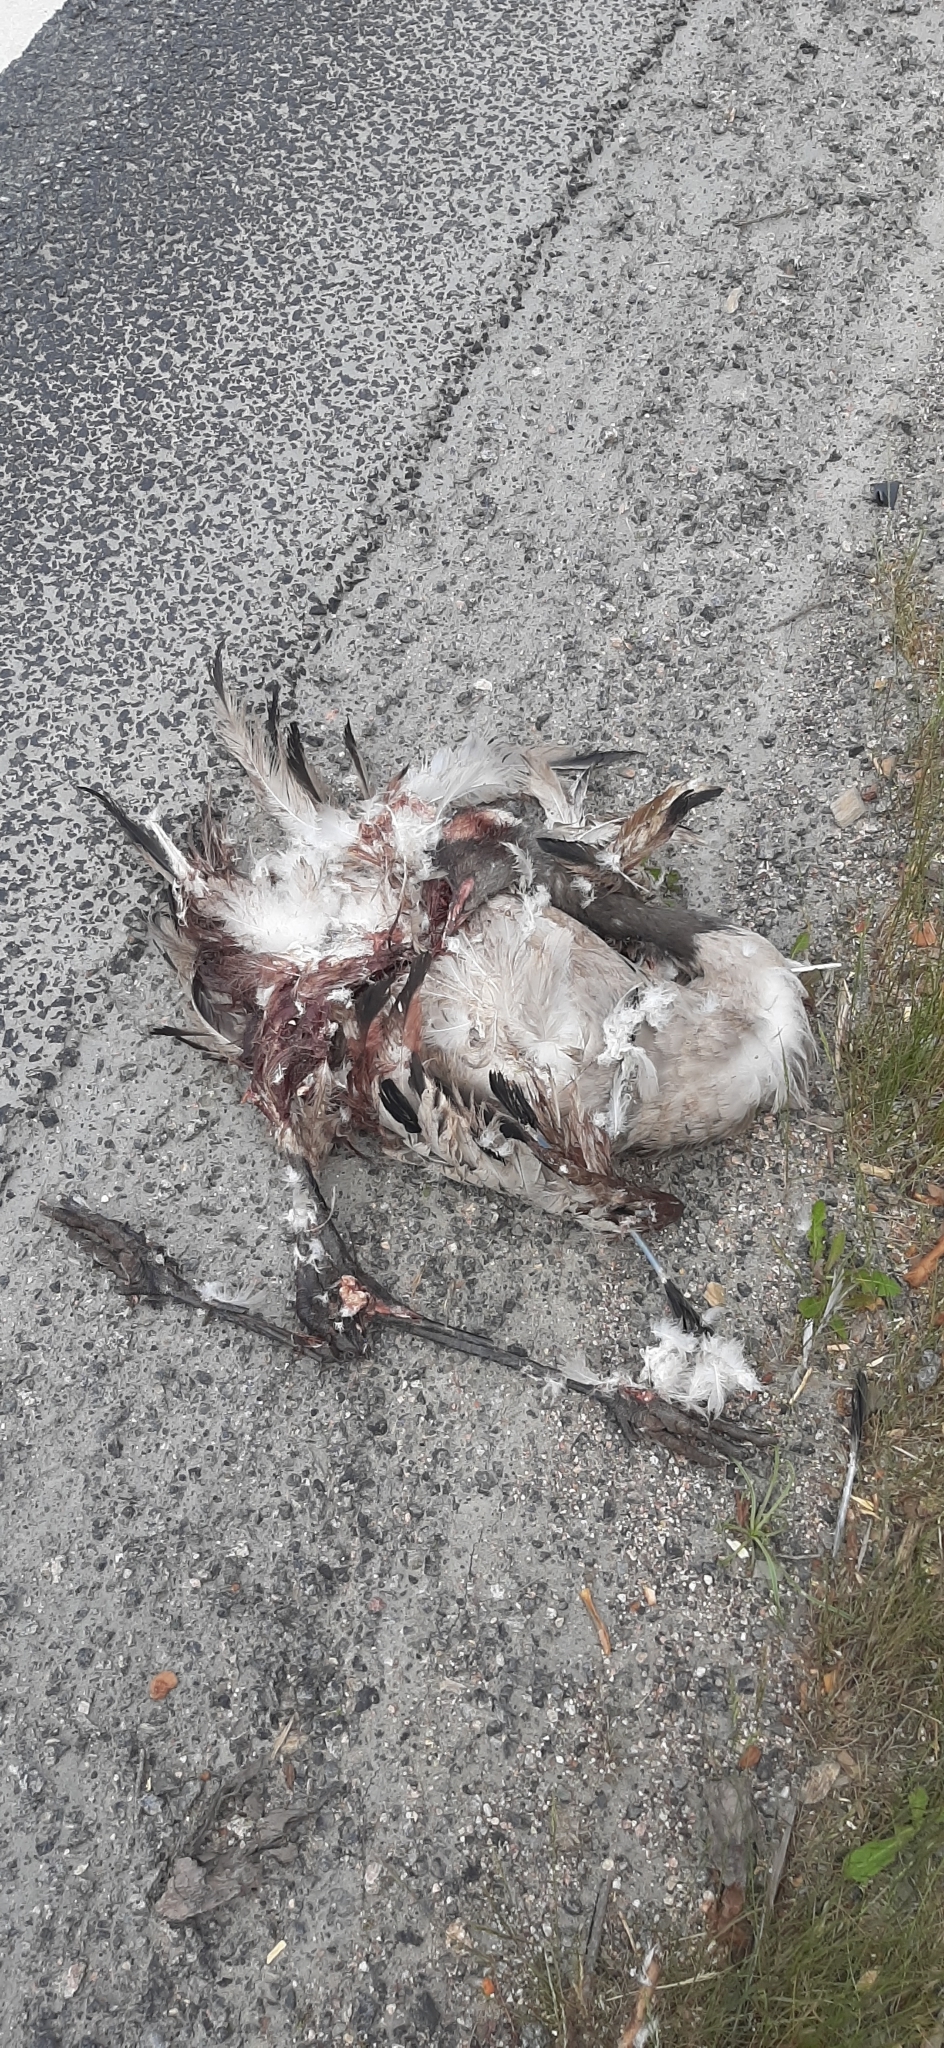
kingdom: Animalia
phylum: Chordata
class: Aves
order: Gruiformes
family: Gruidae
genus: Grus
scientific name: Grus grus
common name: Common crane
